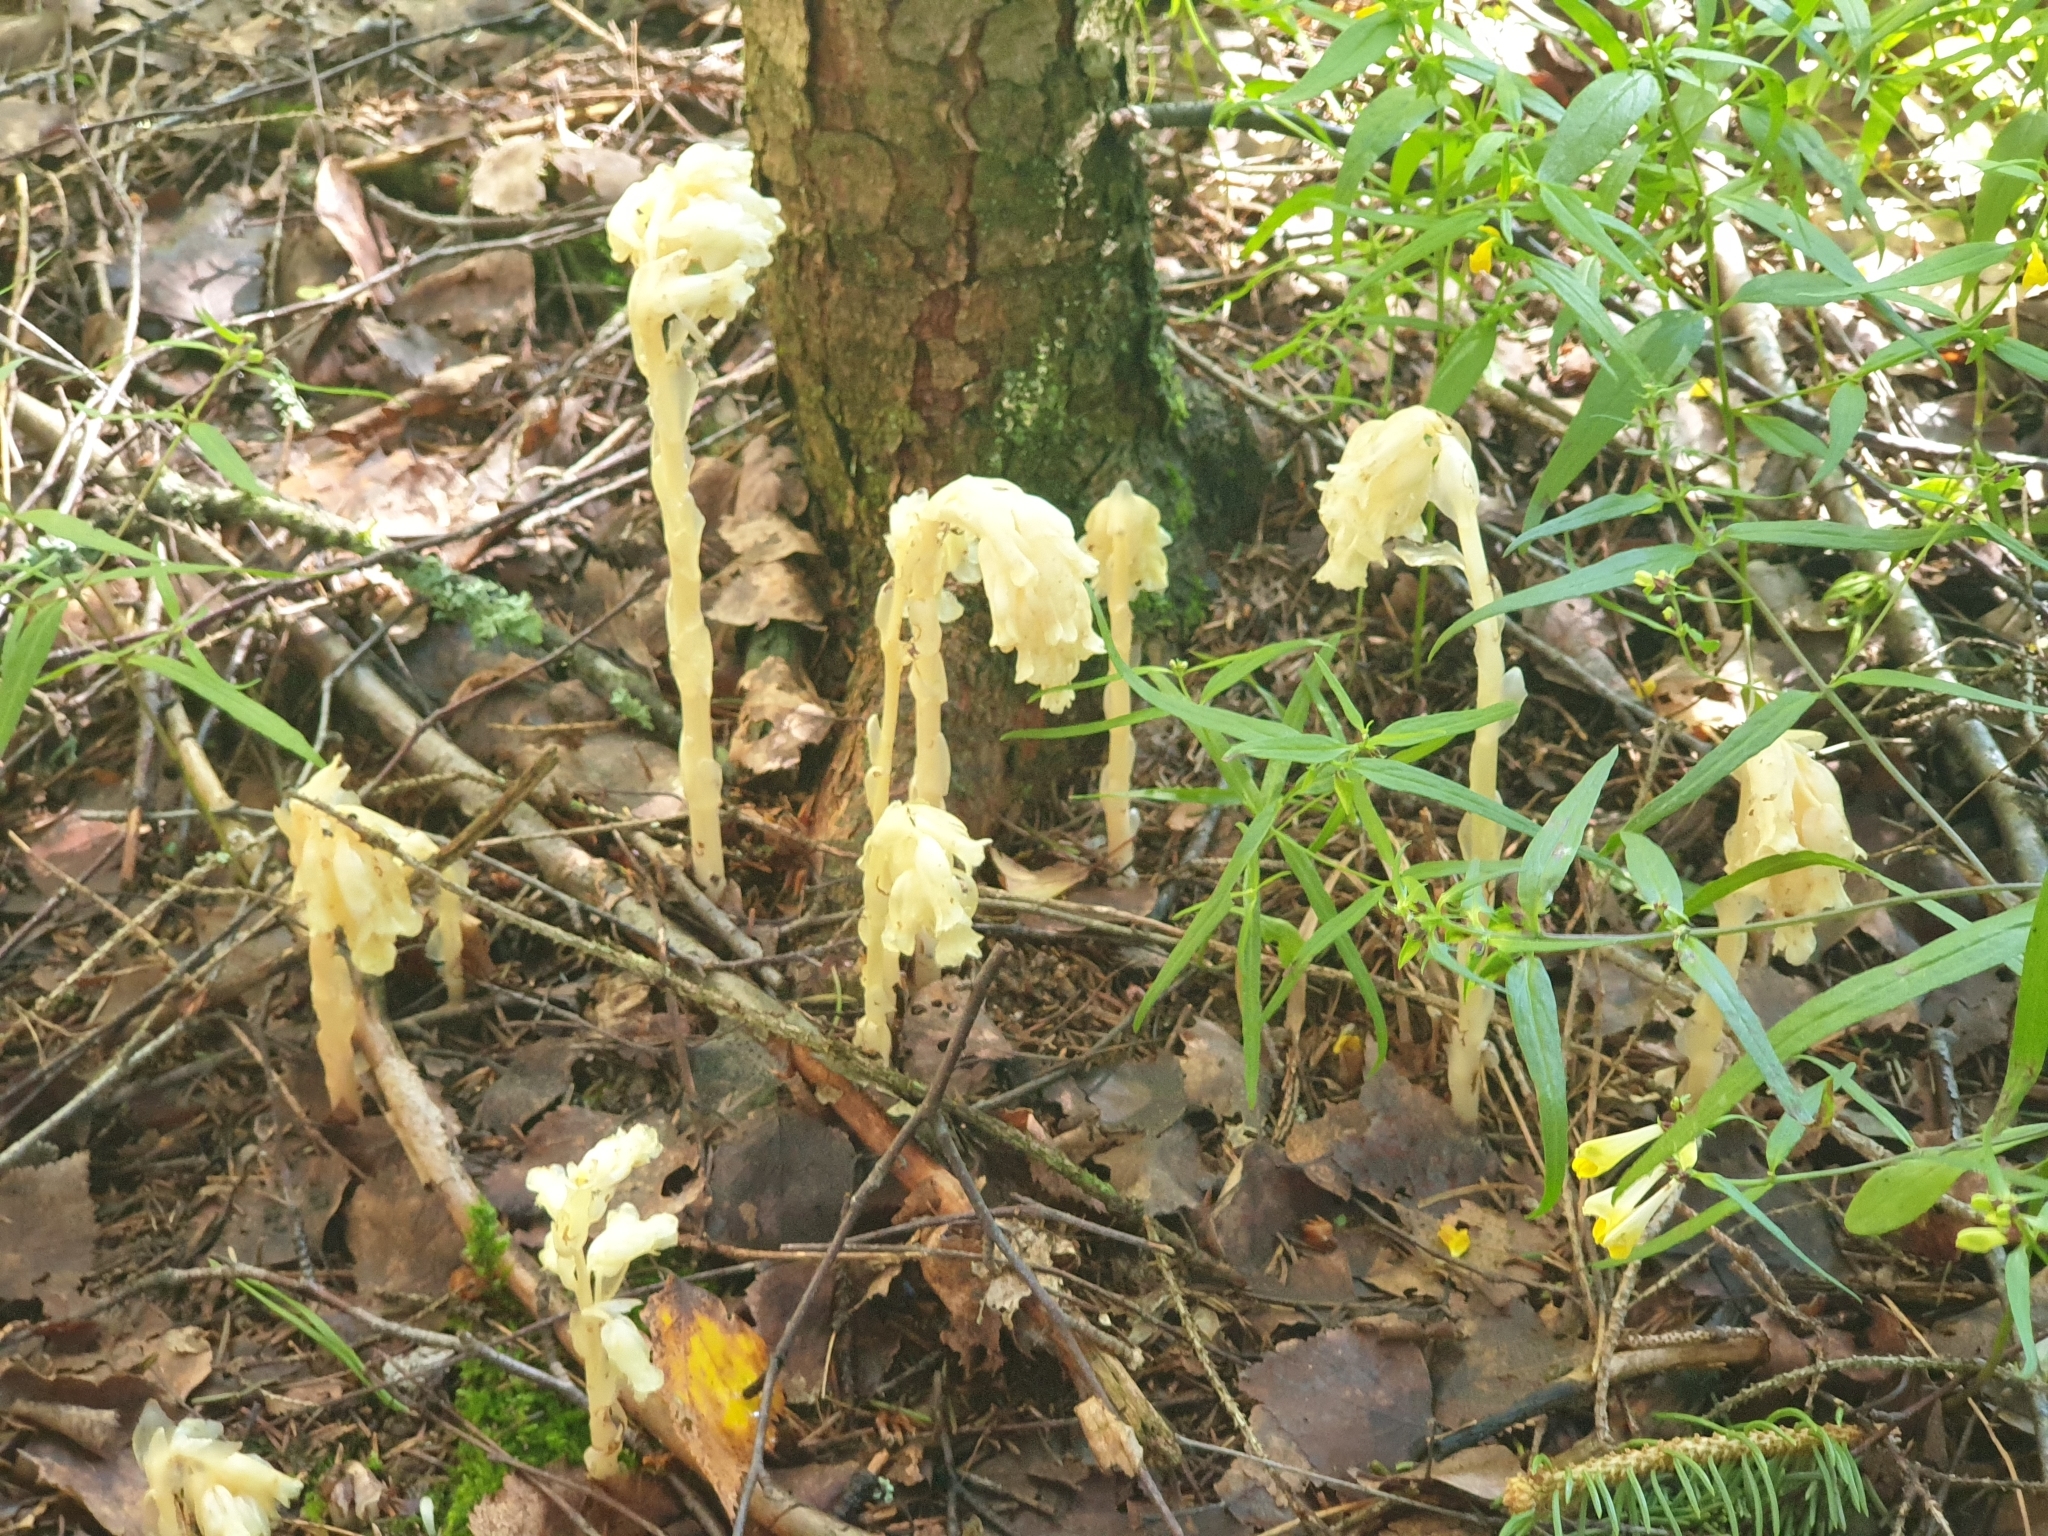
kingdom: Plantae
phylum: Tracheophyta
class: Magnoliopsida
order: Ericales
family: Ericaceae
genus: Hypopitys
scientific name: Hypopitys monotropa
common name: Yellow bird's-nest
